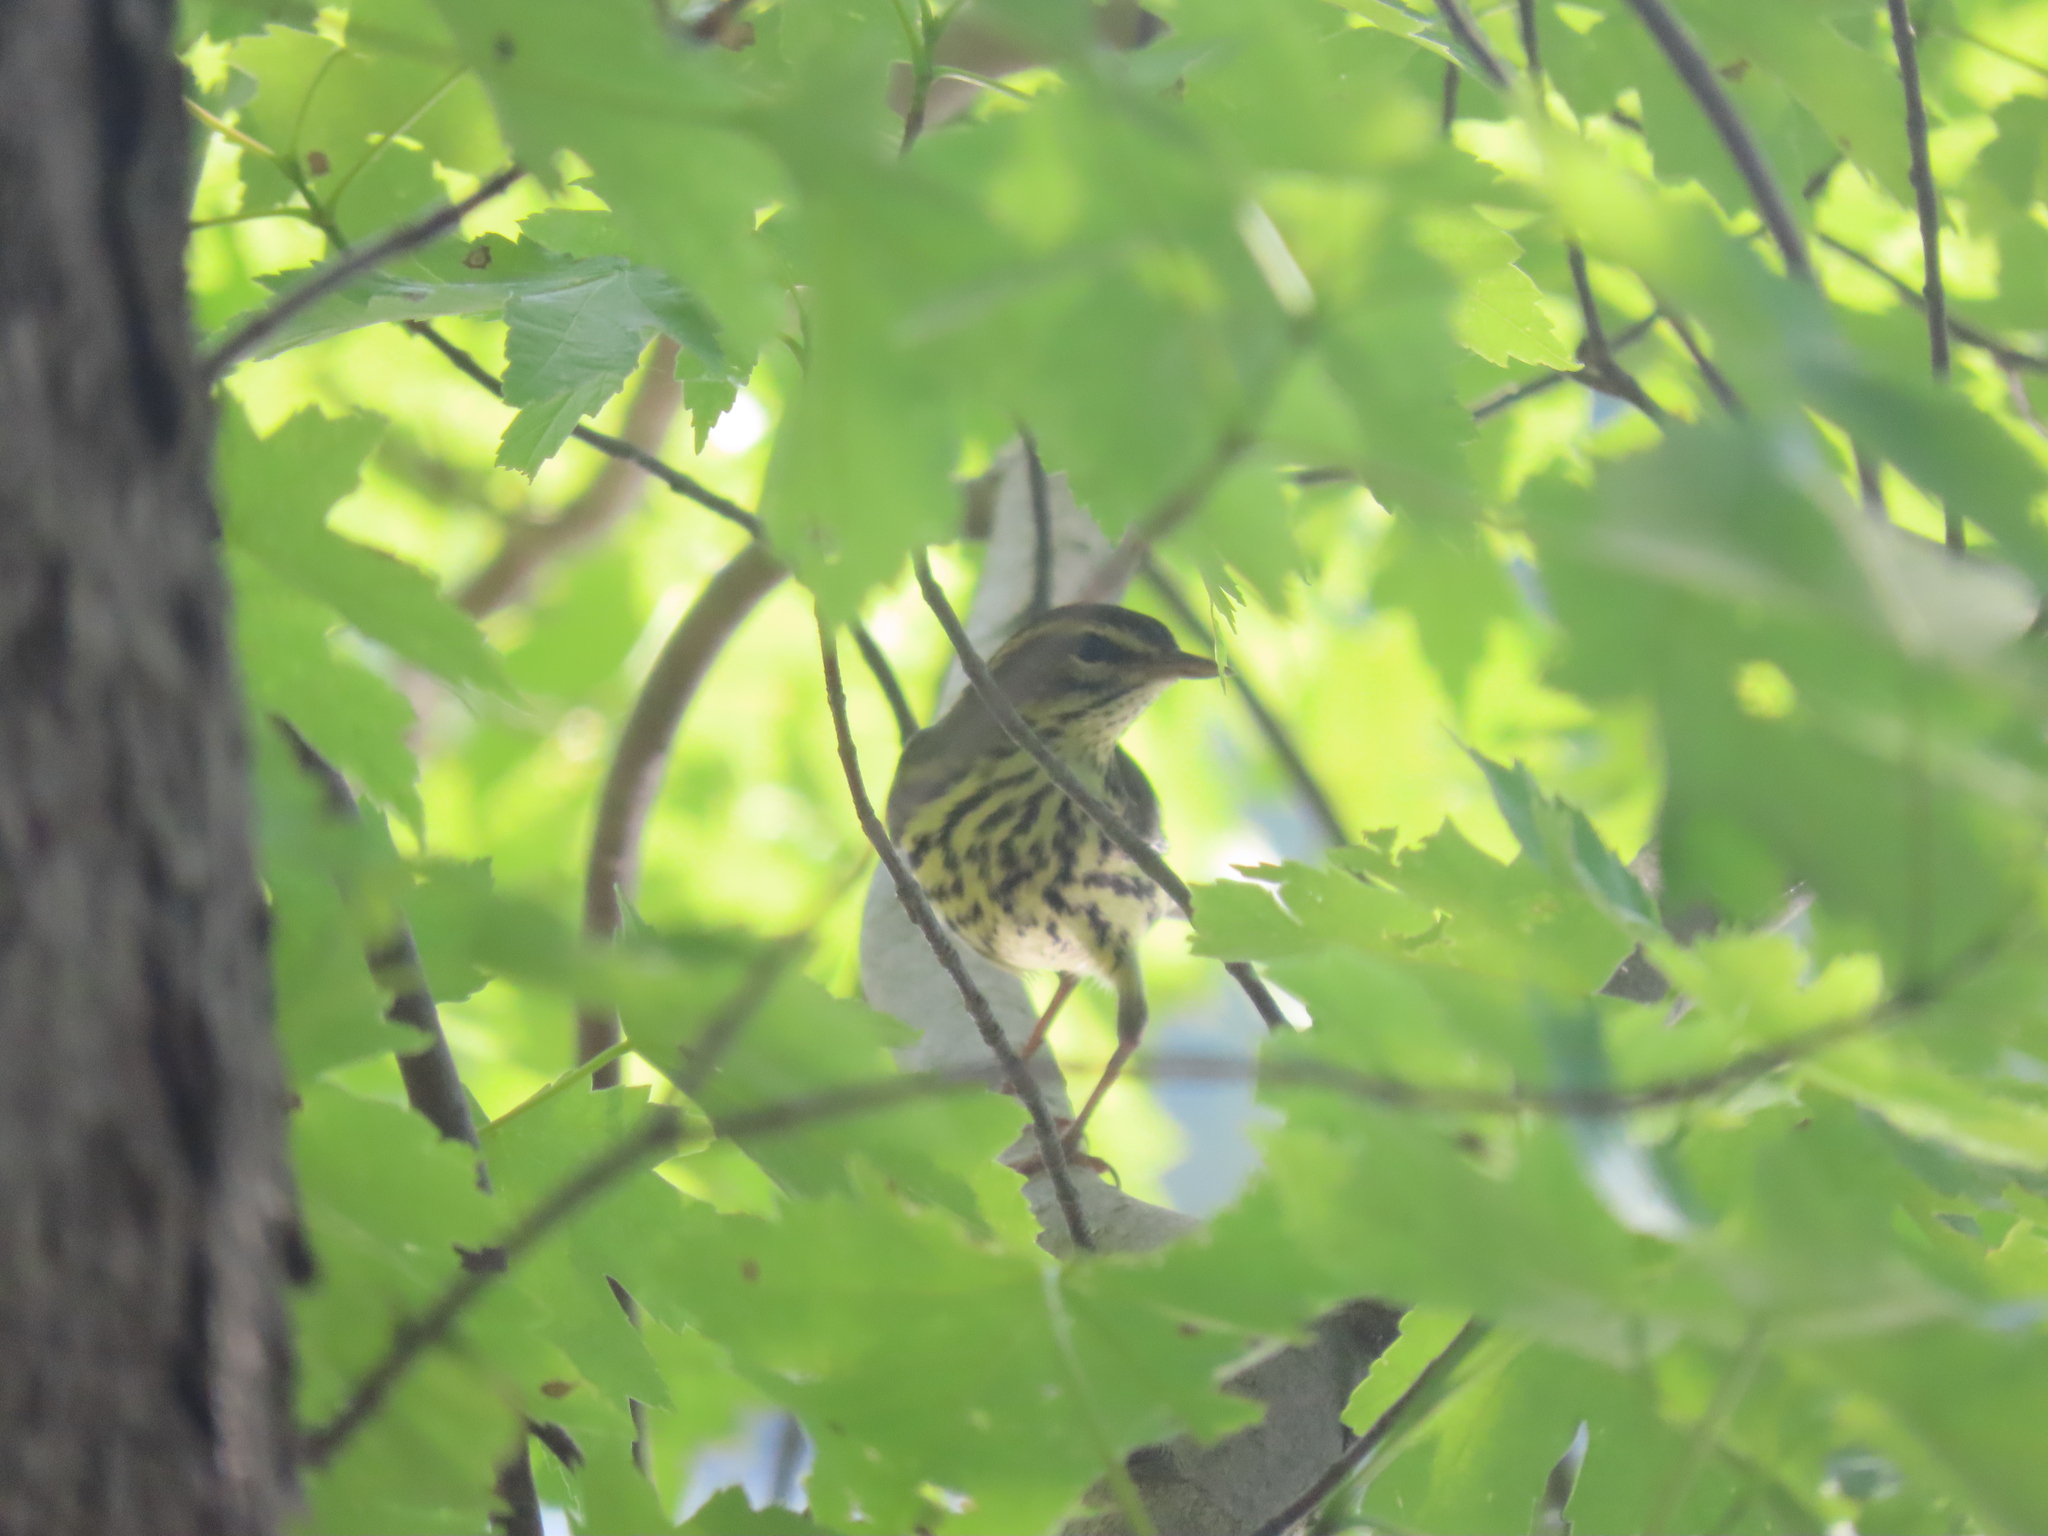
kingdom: Animalia
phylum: Chordata
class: Aves
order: Passeriformes
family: Parulidae
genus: Parkesia
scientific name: Parkesia noveboracensis
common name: Northern waterthrush
